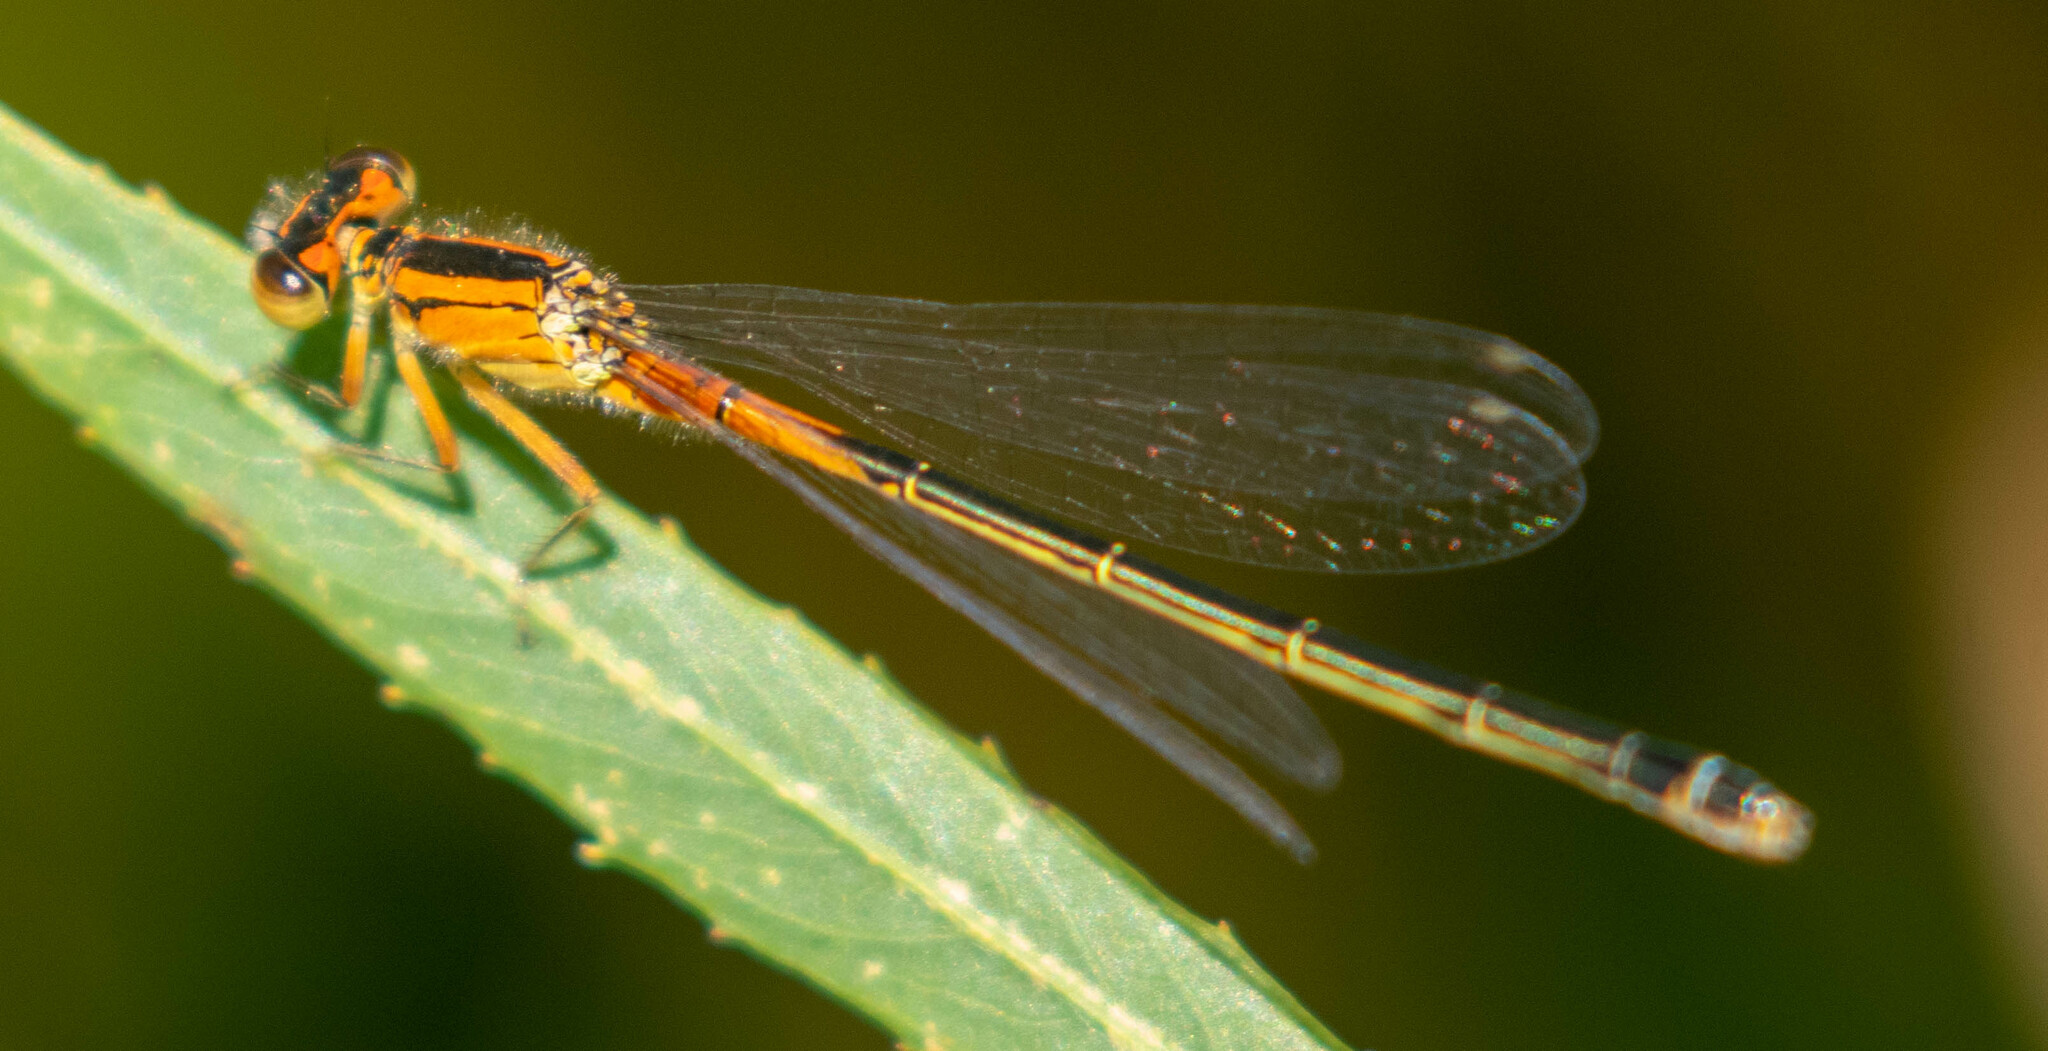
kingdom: Animalia
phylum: Arthropoda
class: Insecta
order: Odonata
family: Coenagrionidae
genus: Ischnura
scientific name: Ischnura verticalis
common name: Eastern forktail
